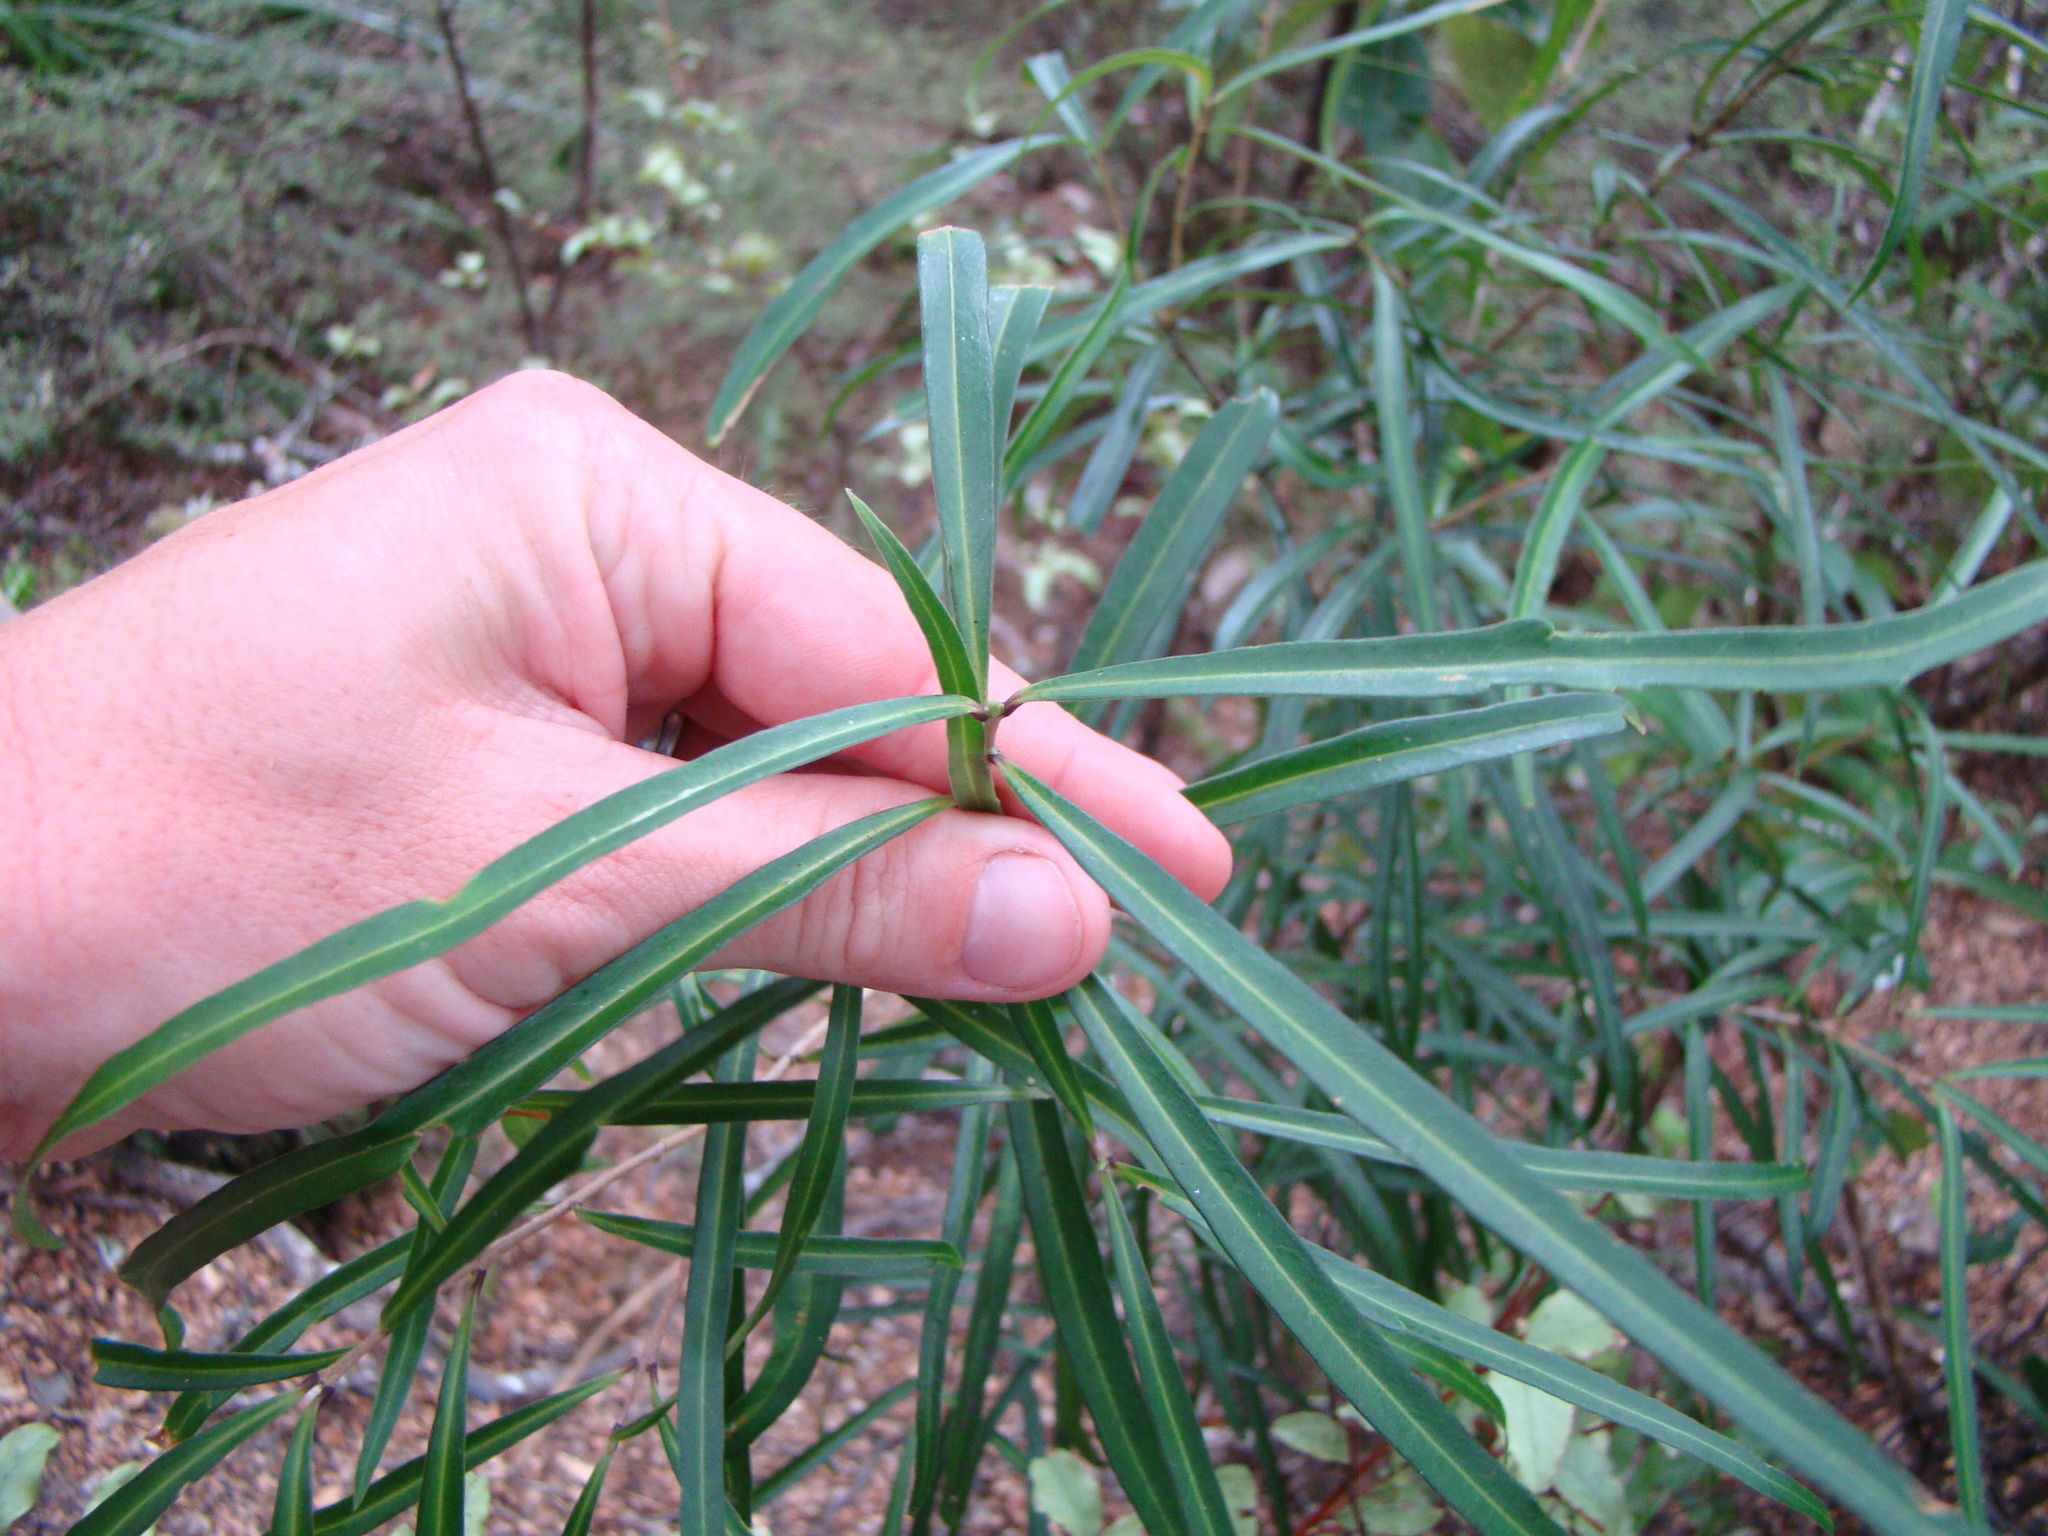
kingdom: Plantae
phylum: Tracheophyta
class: Magnoliopsida
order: Lamiales
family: Oleaceae
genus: Nestegis
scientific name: Nestegis lanceolata
